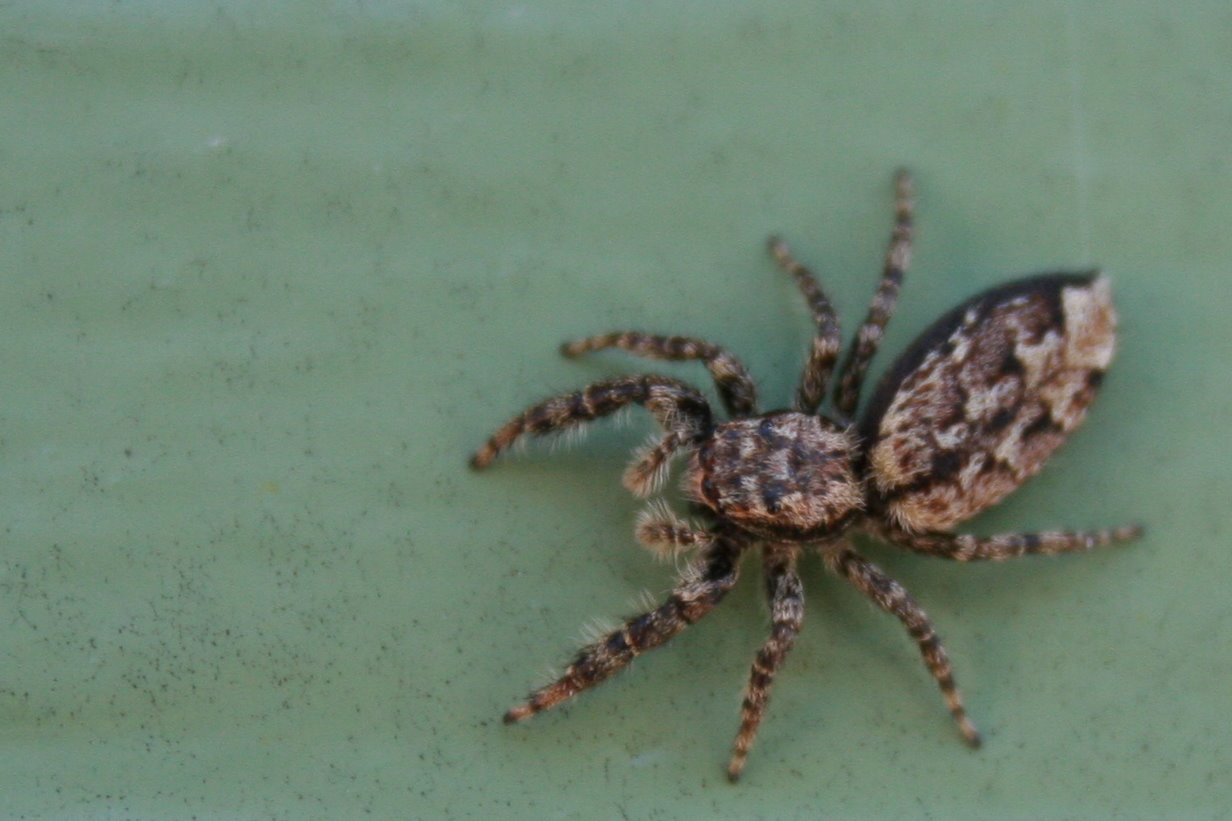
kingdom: Animalia
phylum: Arthropoda
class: Arachnida
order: Araneae
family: Salticidae
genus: Marpissa
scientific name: Marpissa muscosa
